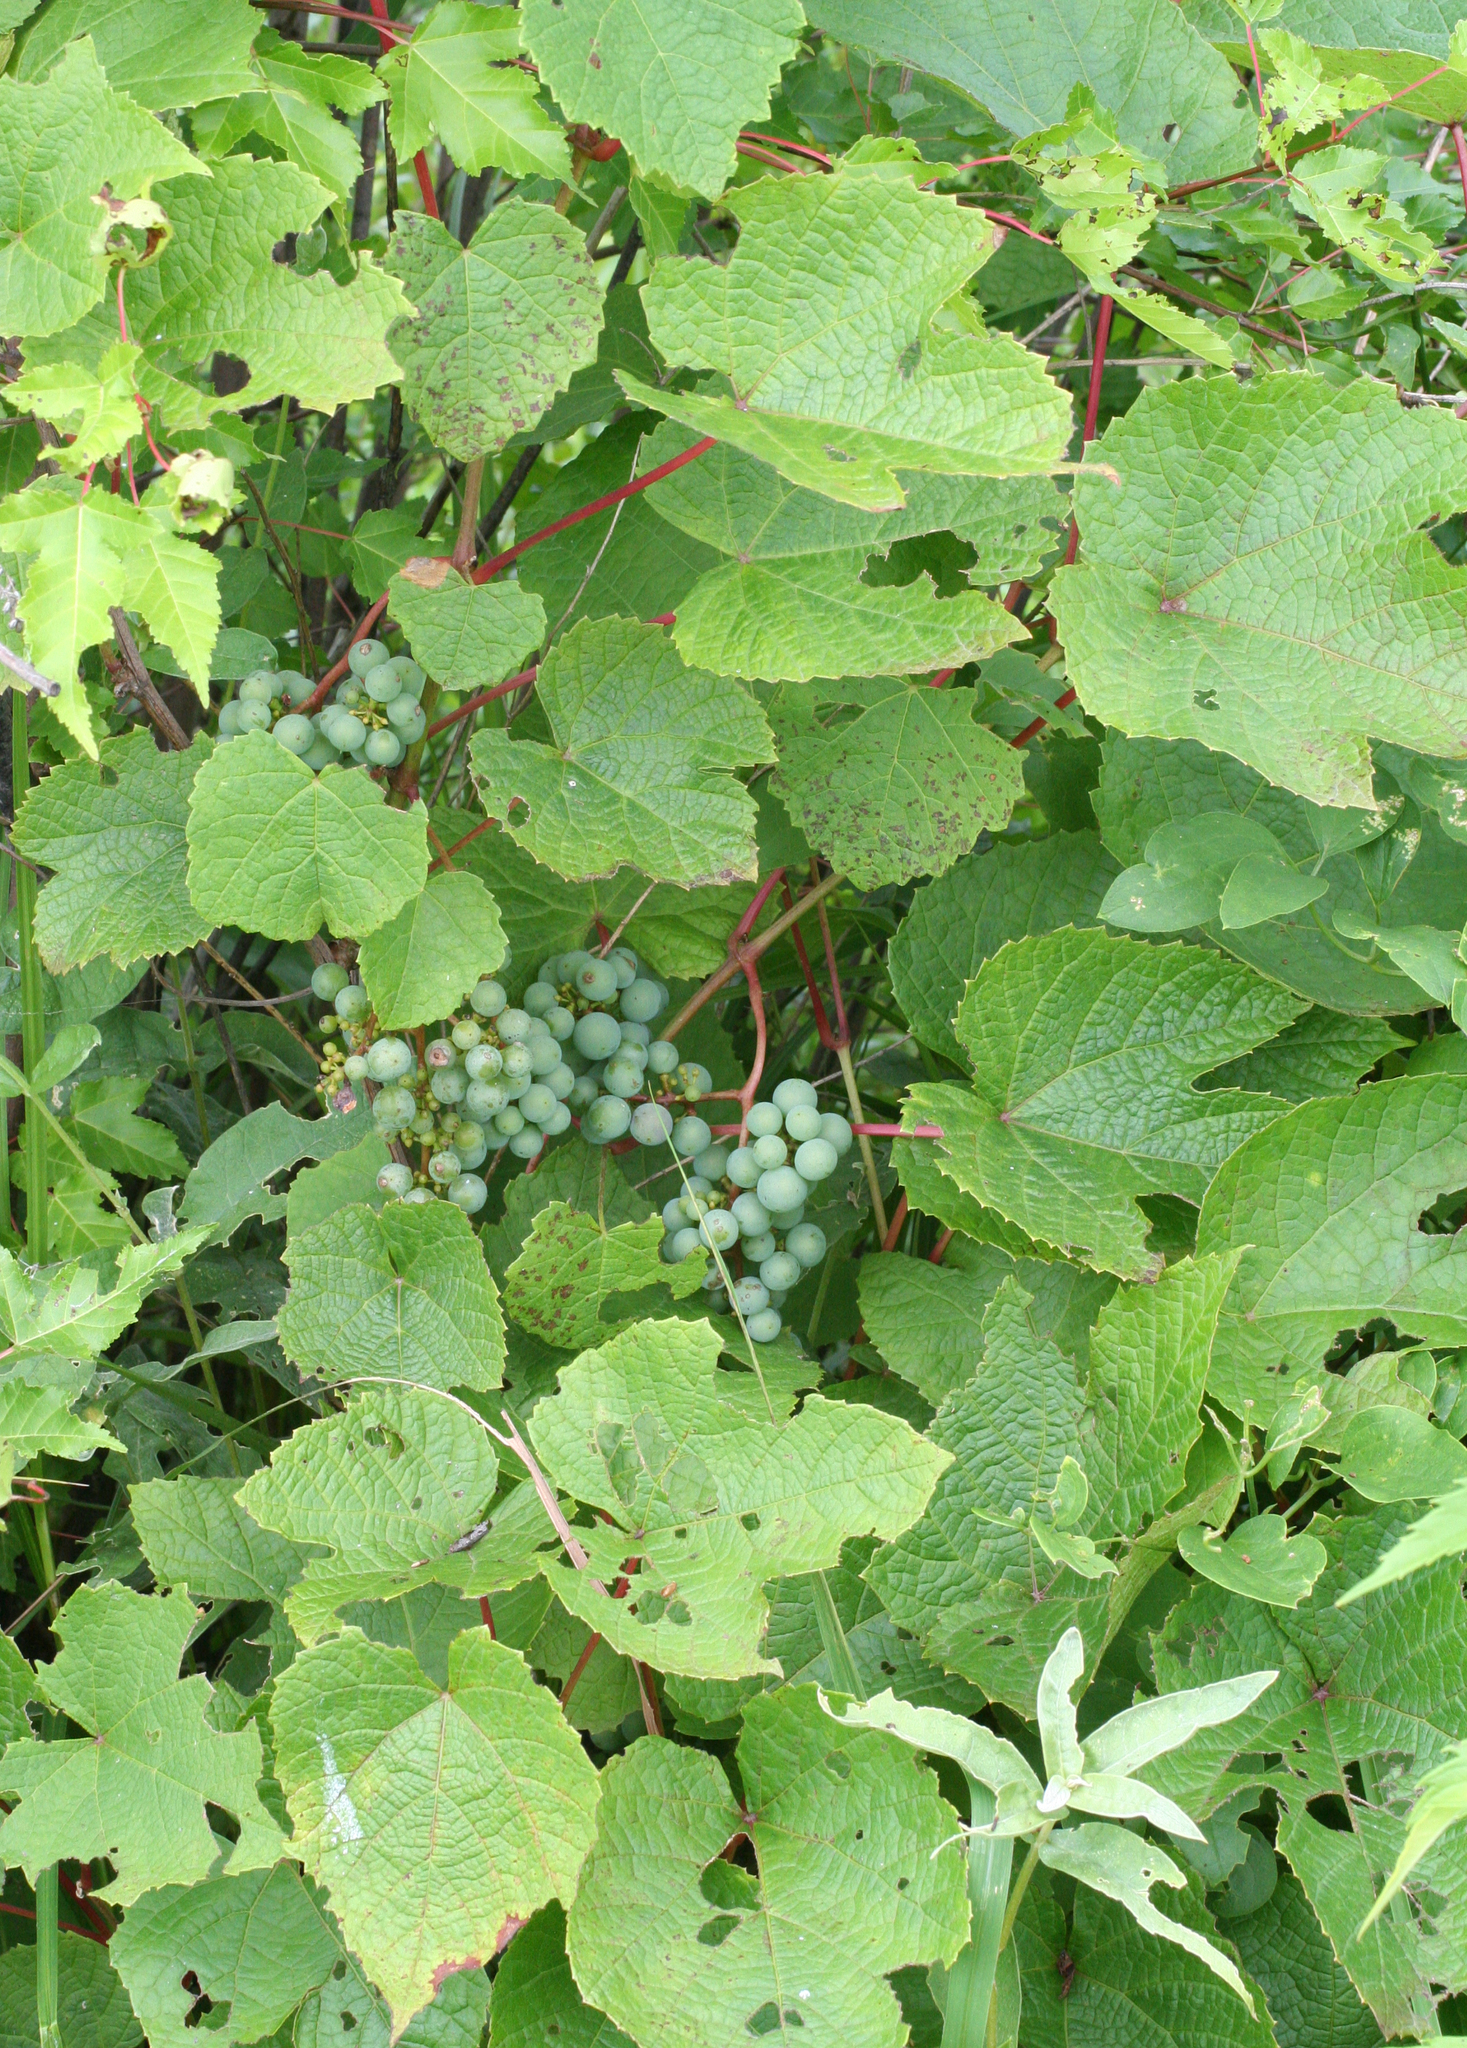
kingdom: Plantae
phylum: Tracheophyta
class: Magnoliopsida
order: Vitales
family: Vitaceae
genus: Vitis
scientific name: Vitis amurensis
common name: Amur grape
